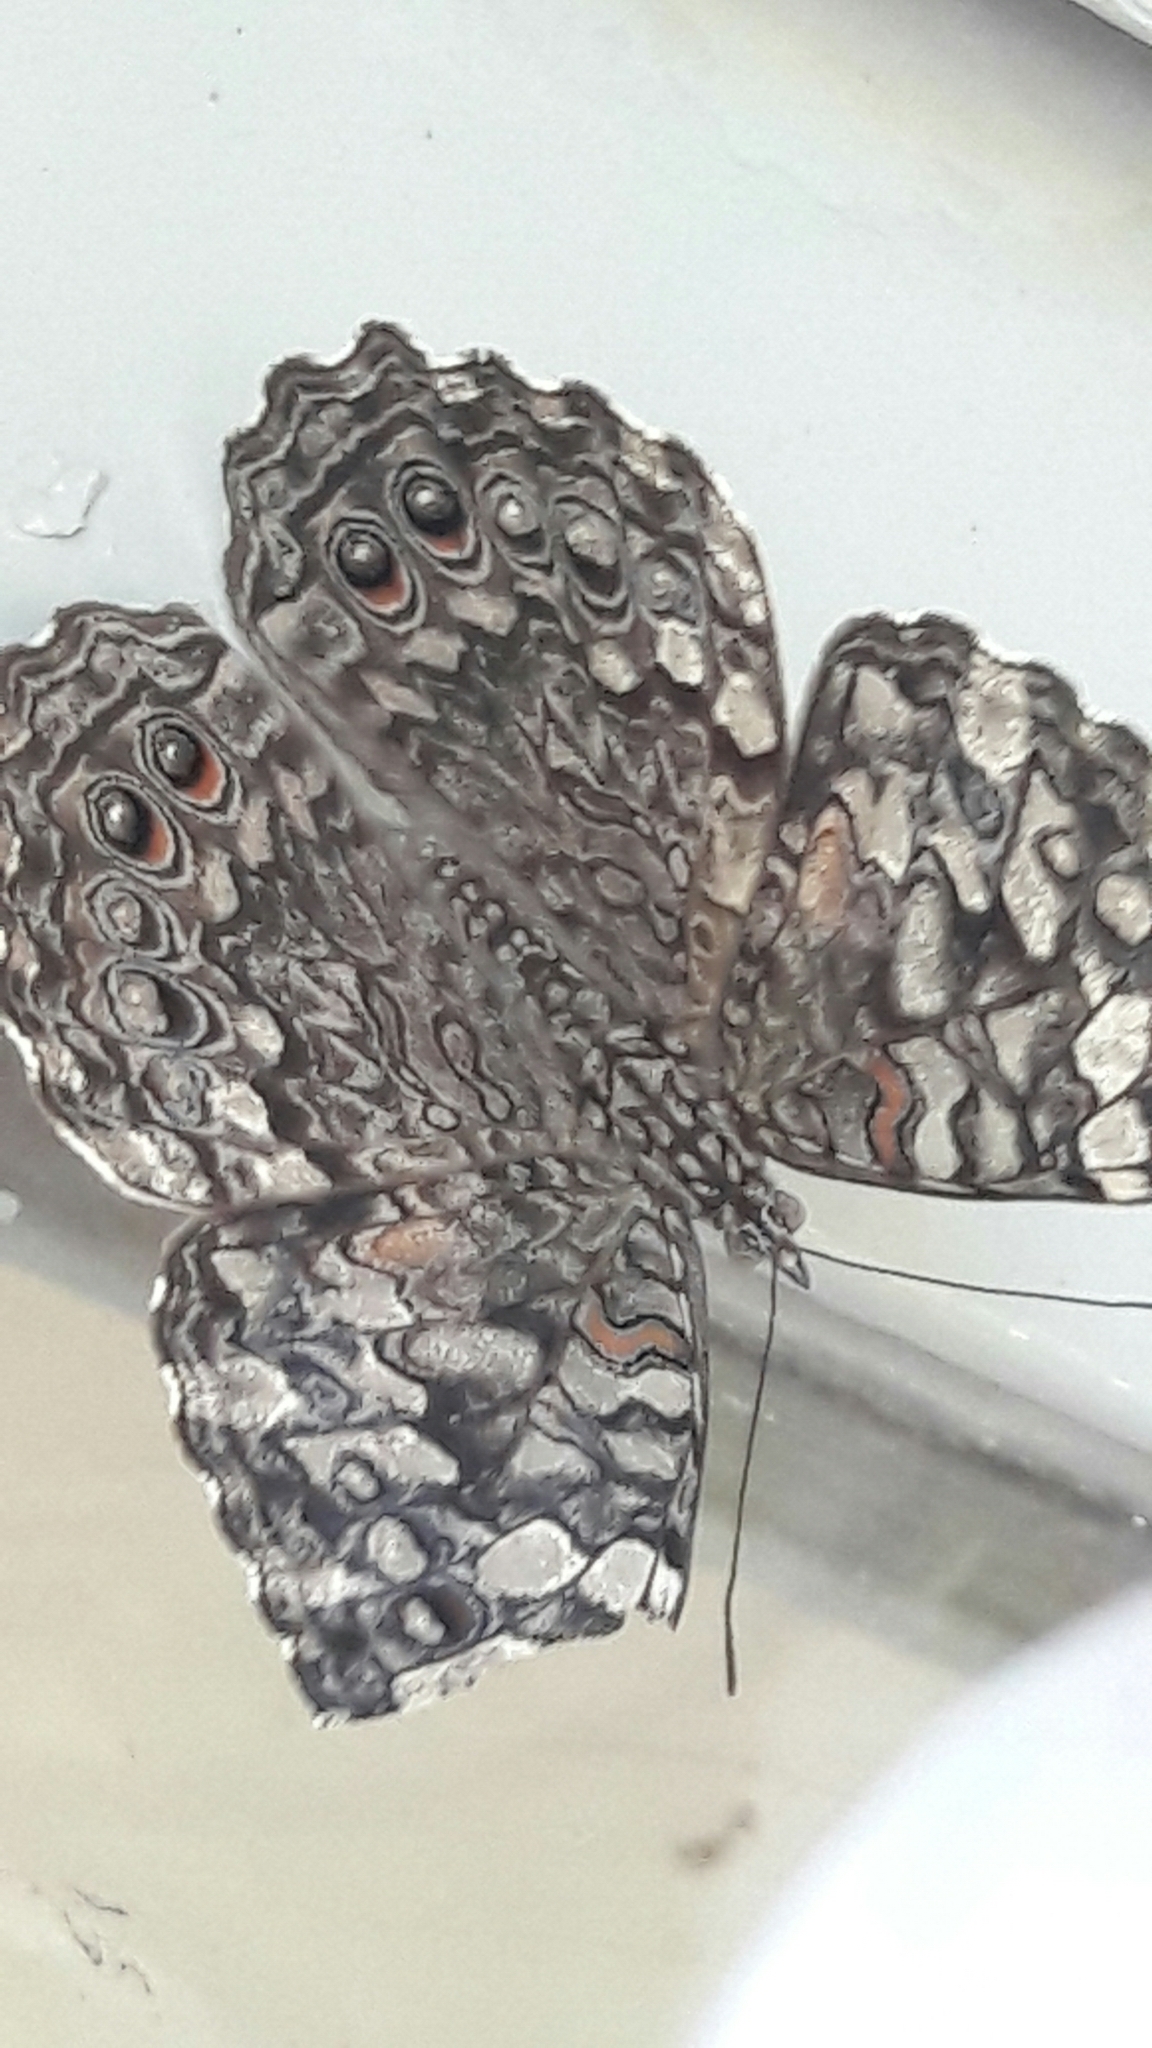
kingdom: Animalia
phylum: Arthropoda
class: Insecta
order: Lepidoptera
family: Nymphalidae
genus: Hamadryas
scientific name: Hamadryas februa
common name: Gray cracker
